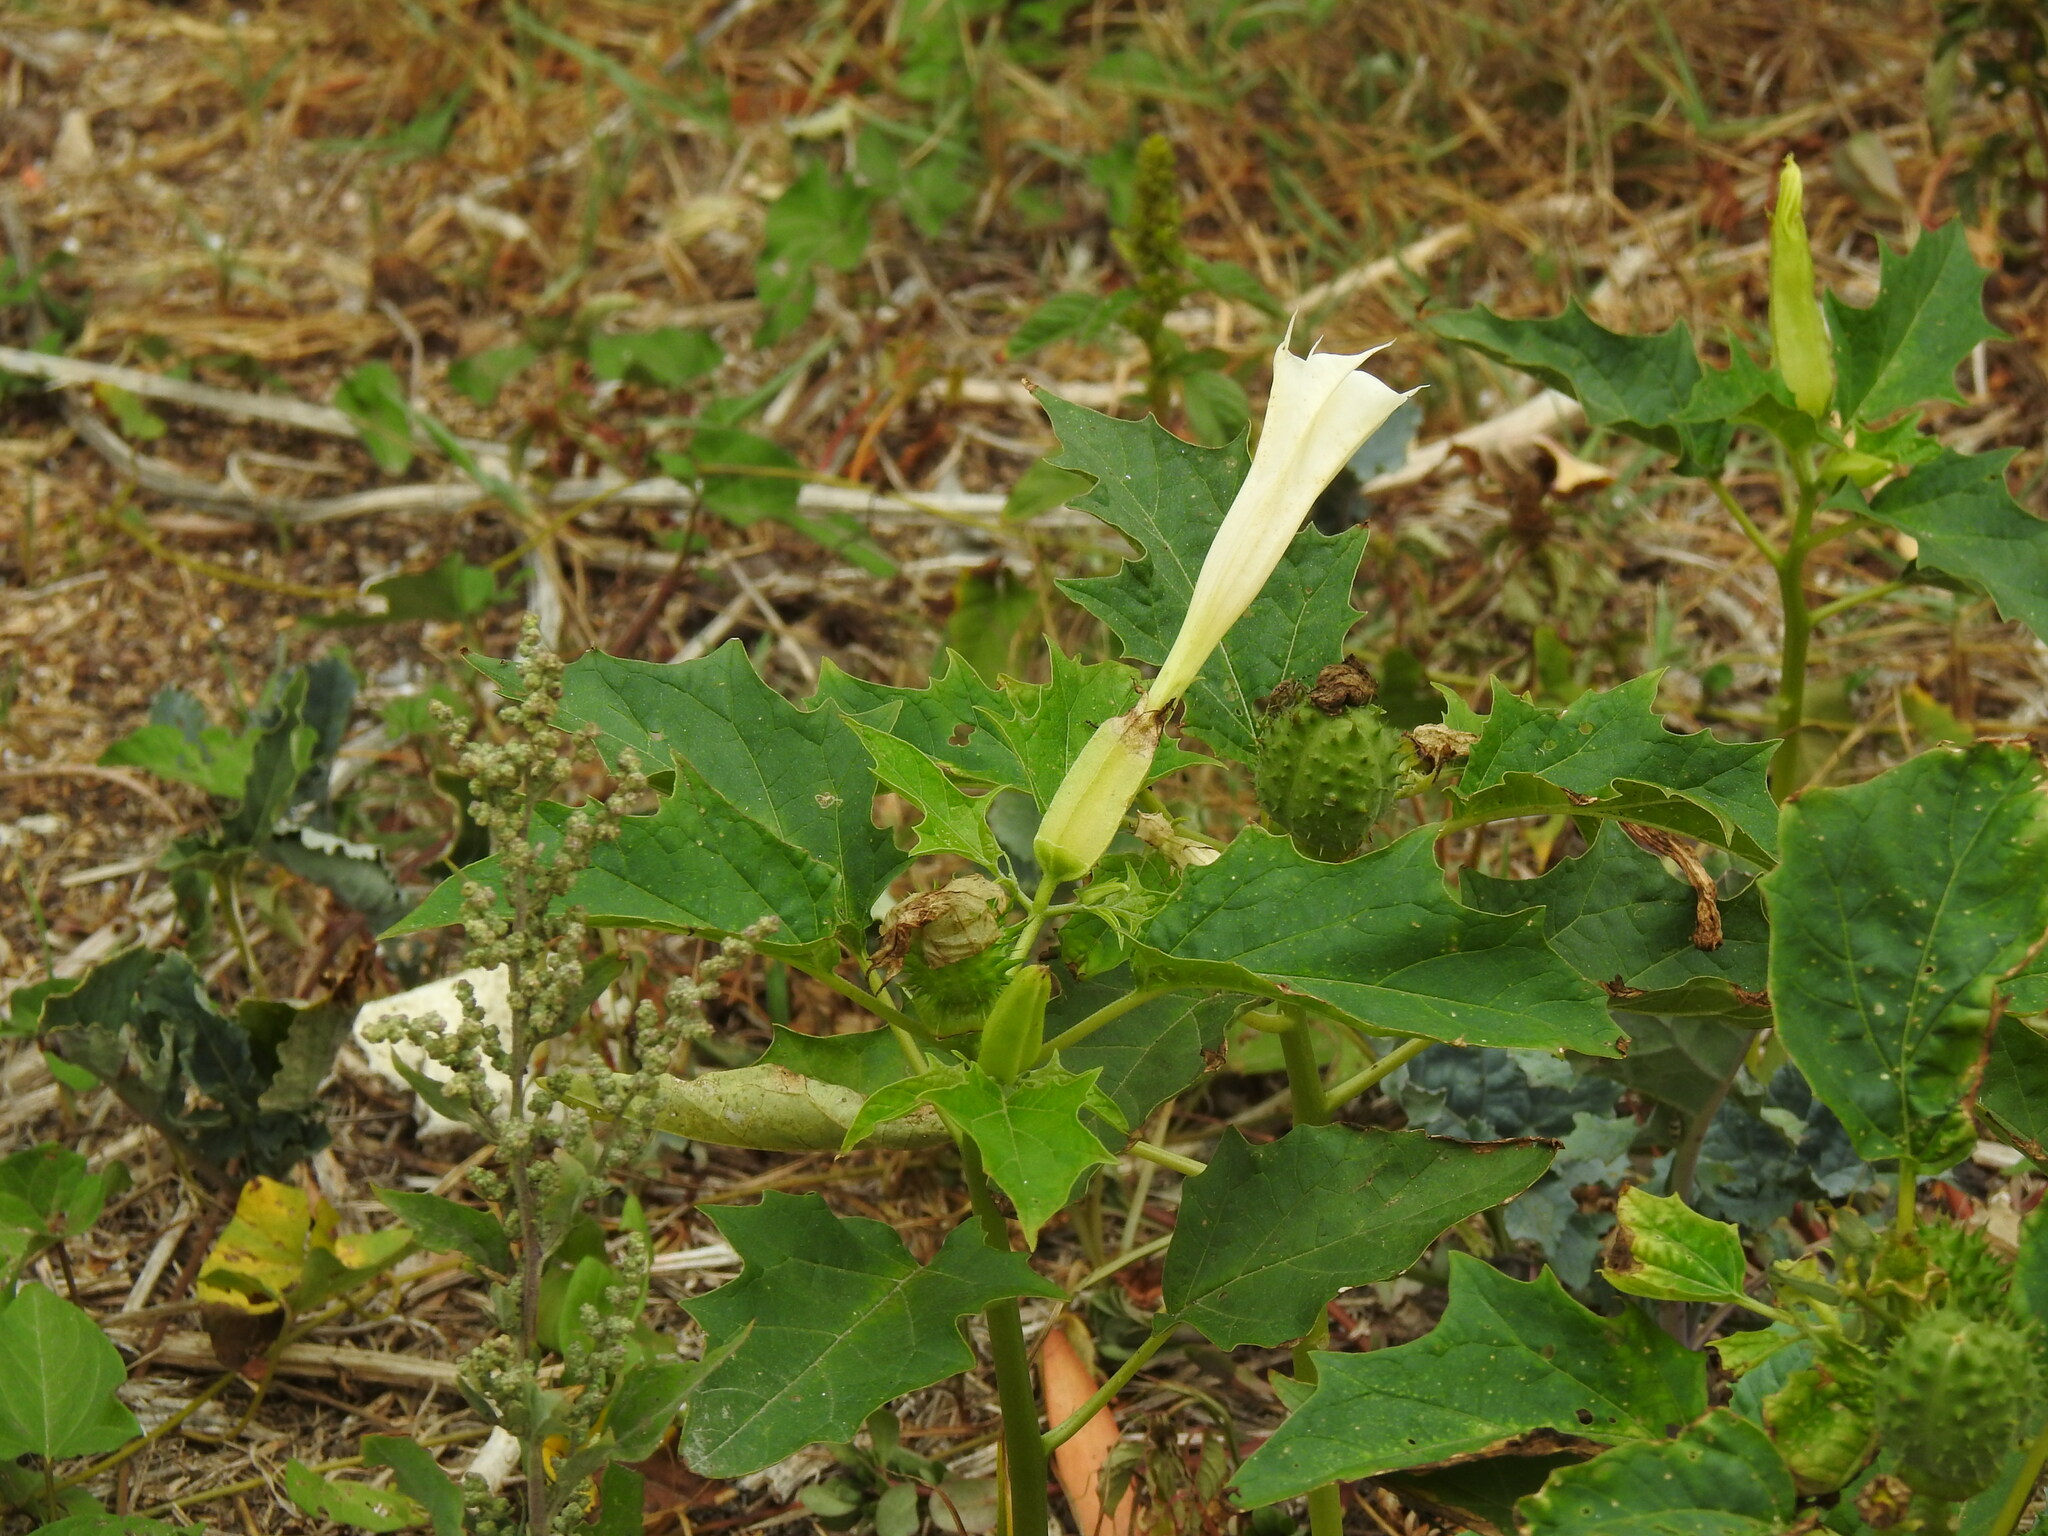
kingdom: Plantae
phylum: Tracheophyta
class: Magnoliopsida
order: Solanales
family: Solanaceae
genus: Datura
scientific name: Datura stramonium
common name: Thorn-apple
